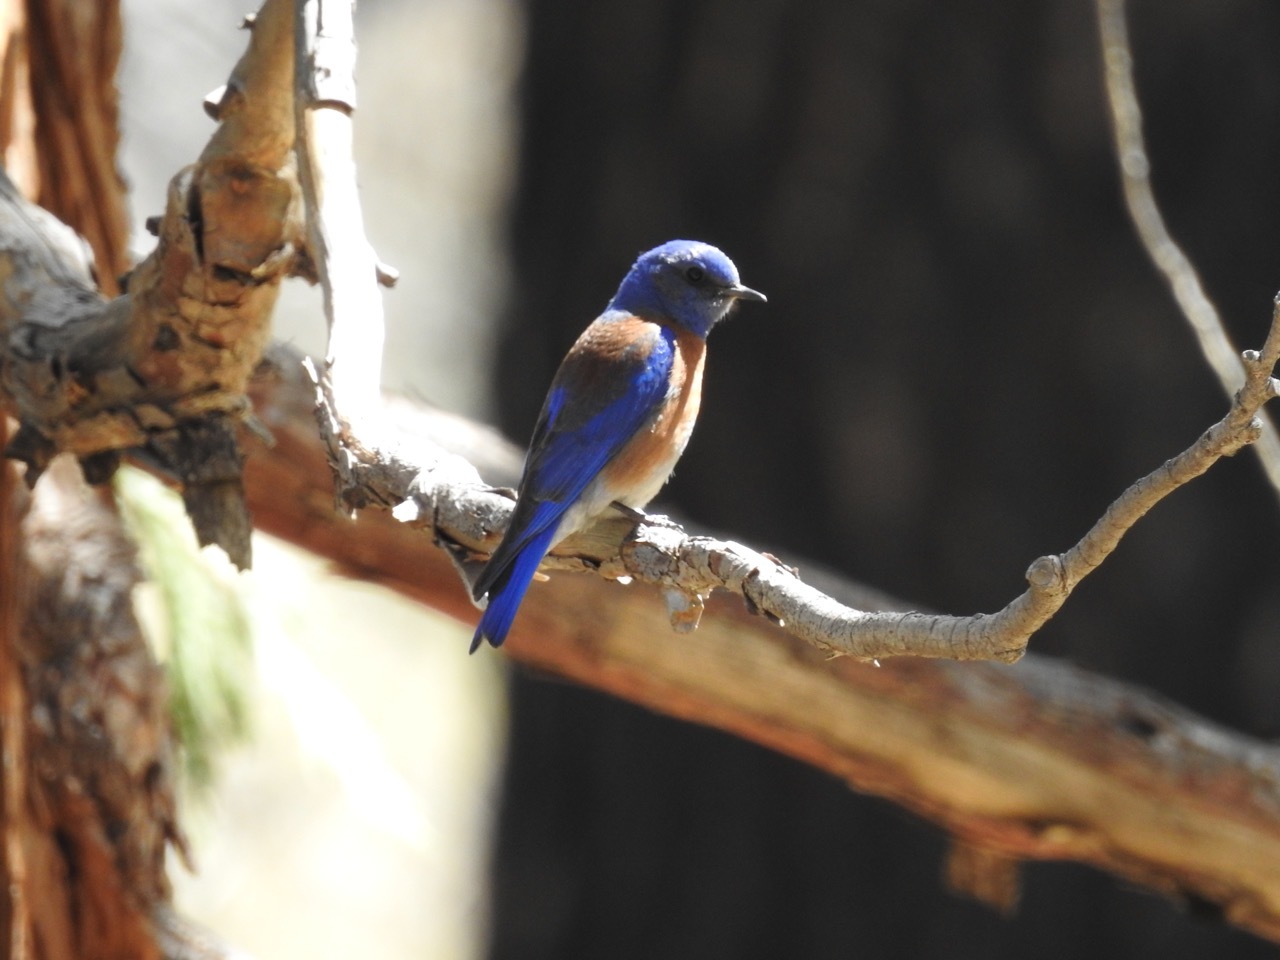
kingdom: Animalia
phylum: Chordata
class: Aves
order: Passeriformes
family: Turdidae
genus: Sialia
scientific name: Sialia mexicana
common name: Western bluebird
